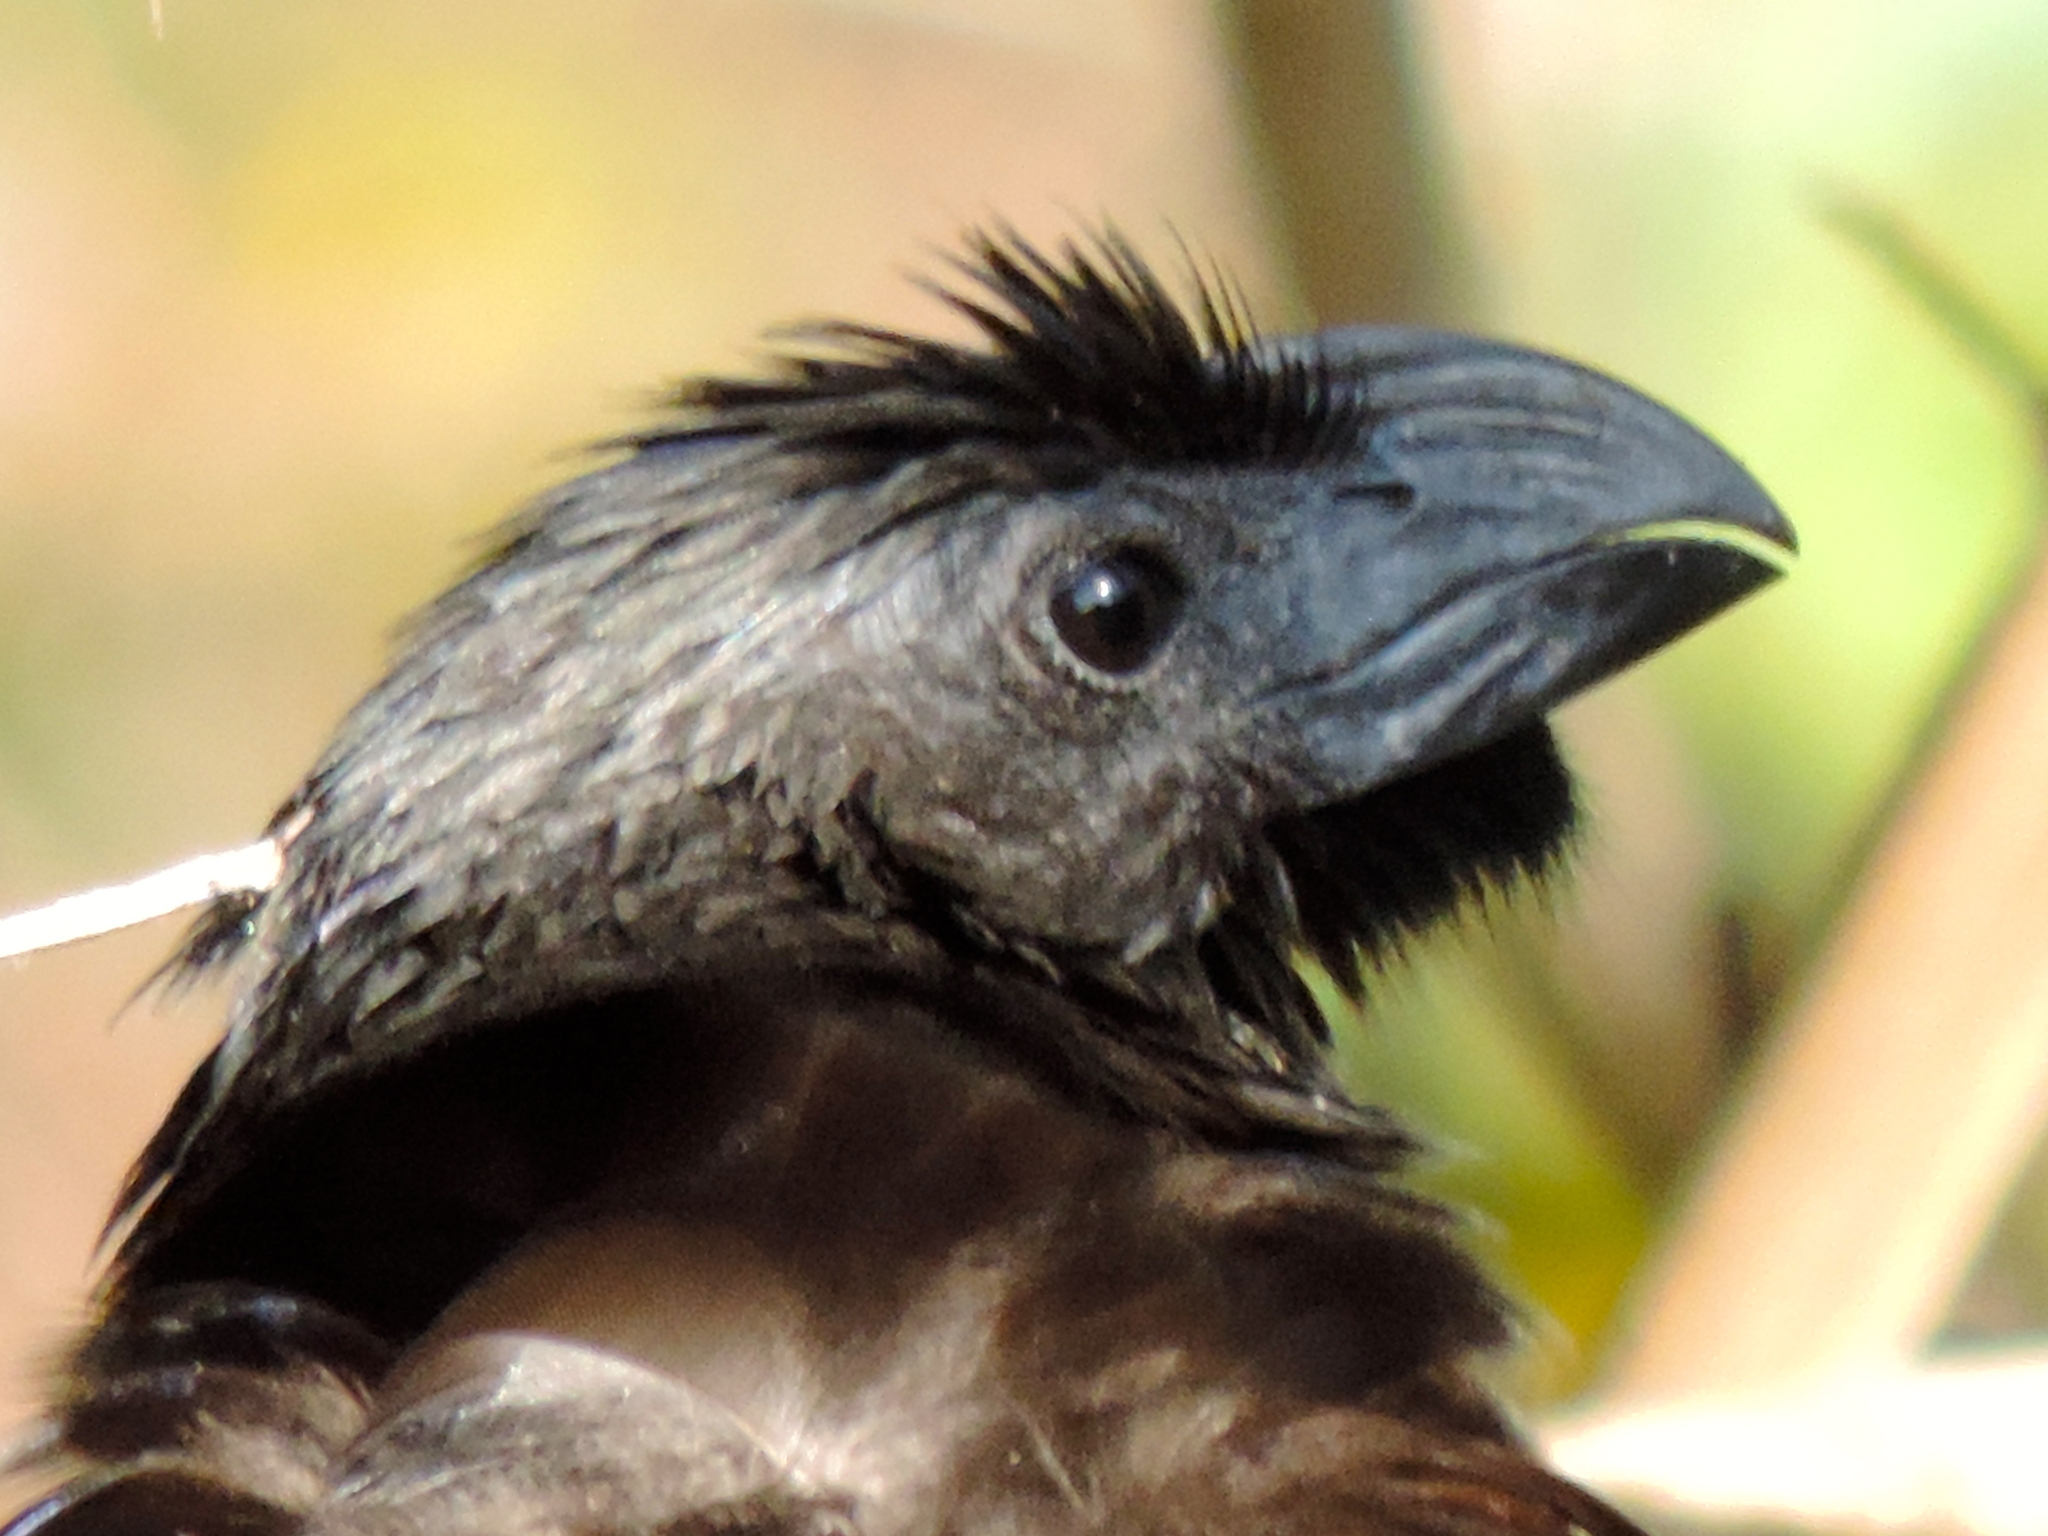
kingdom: Animalia
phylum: Chordata
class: Aves
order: Cuculiformes
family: Cuculidae
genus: Crotophaga
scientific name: Crotophaga sulcirostris
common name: Groove-billed ani
